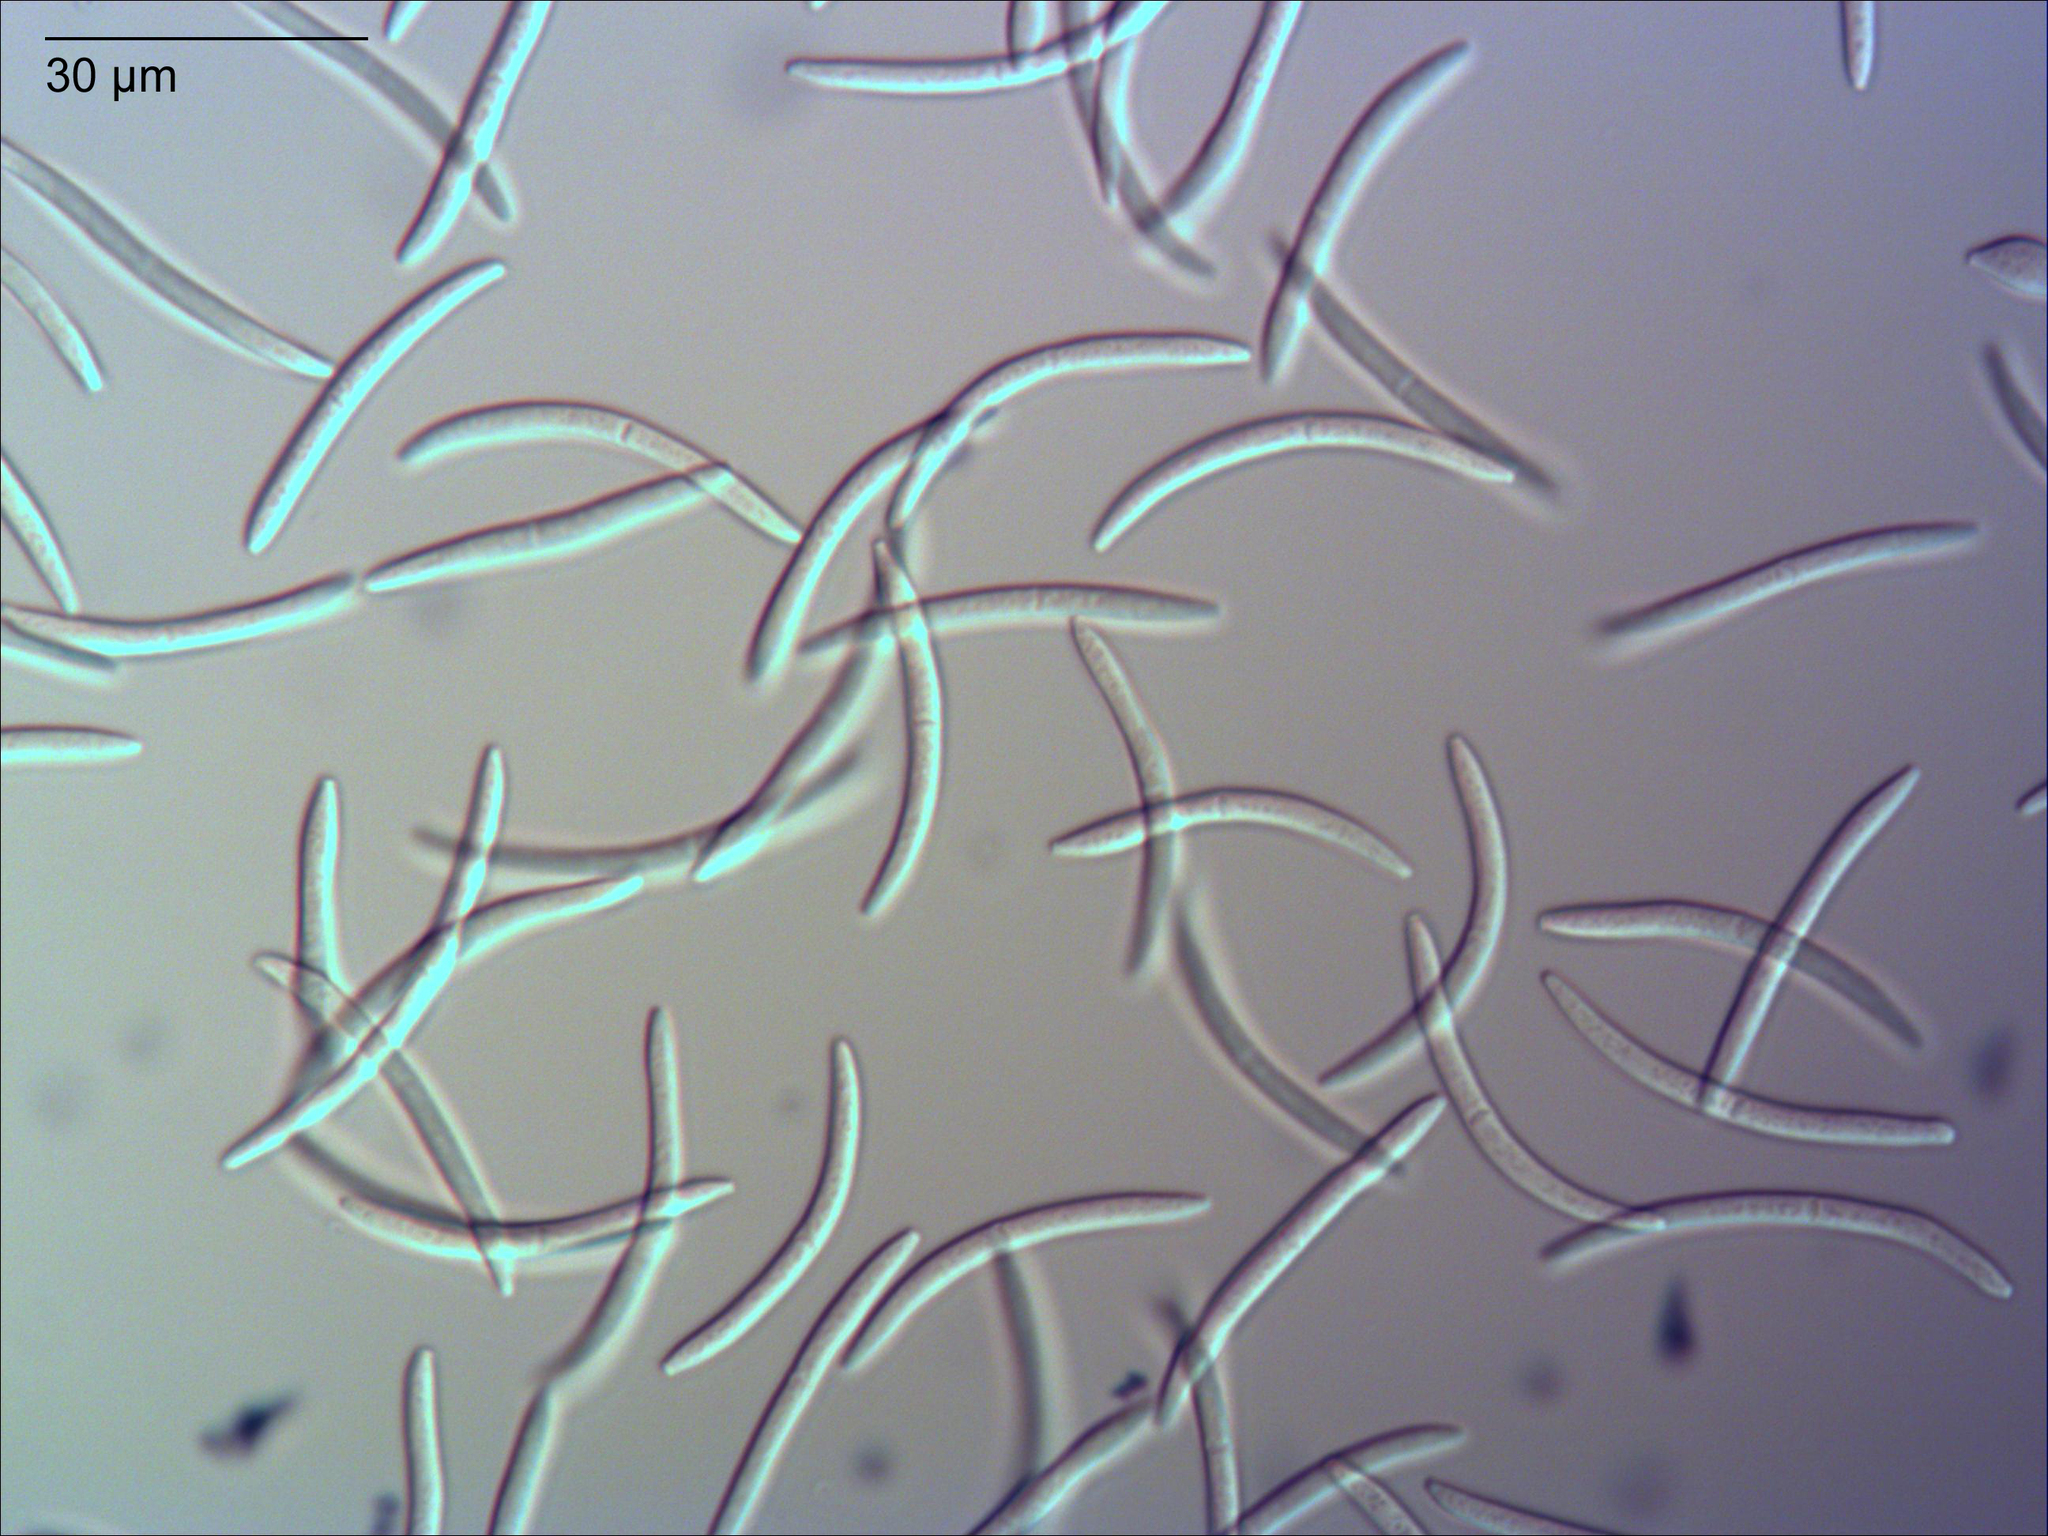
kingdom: Fungi
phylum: Ascomycota
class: Dothideomycetes
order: Mycosphaerellales
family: Mycosphaerellaceae
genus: Septoria
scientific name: Septoria colensoi
